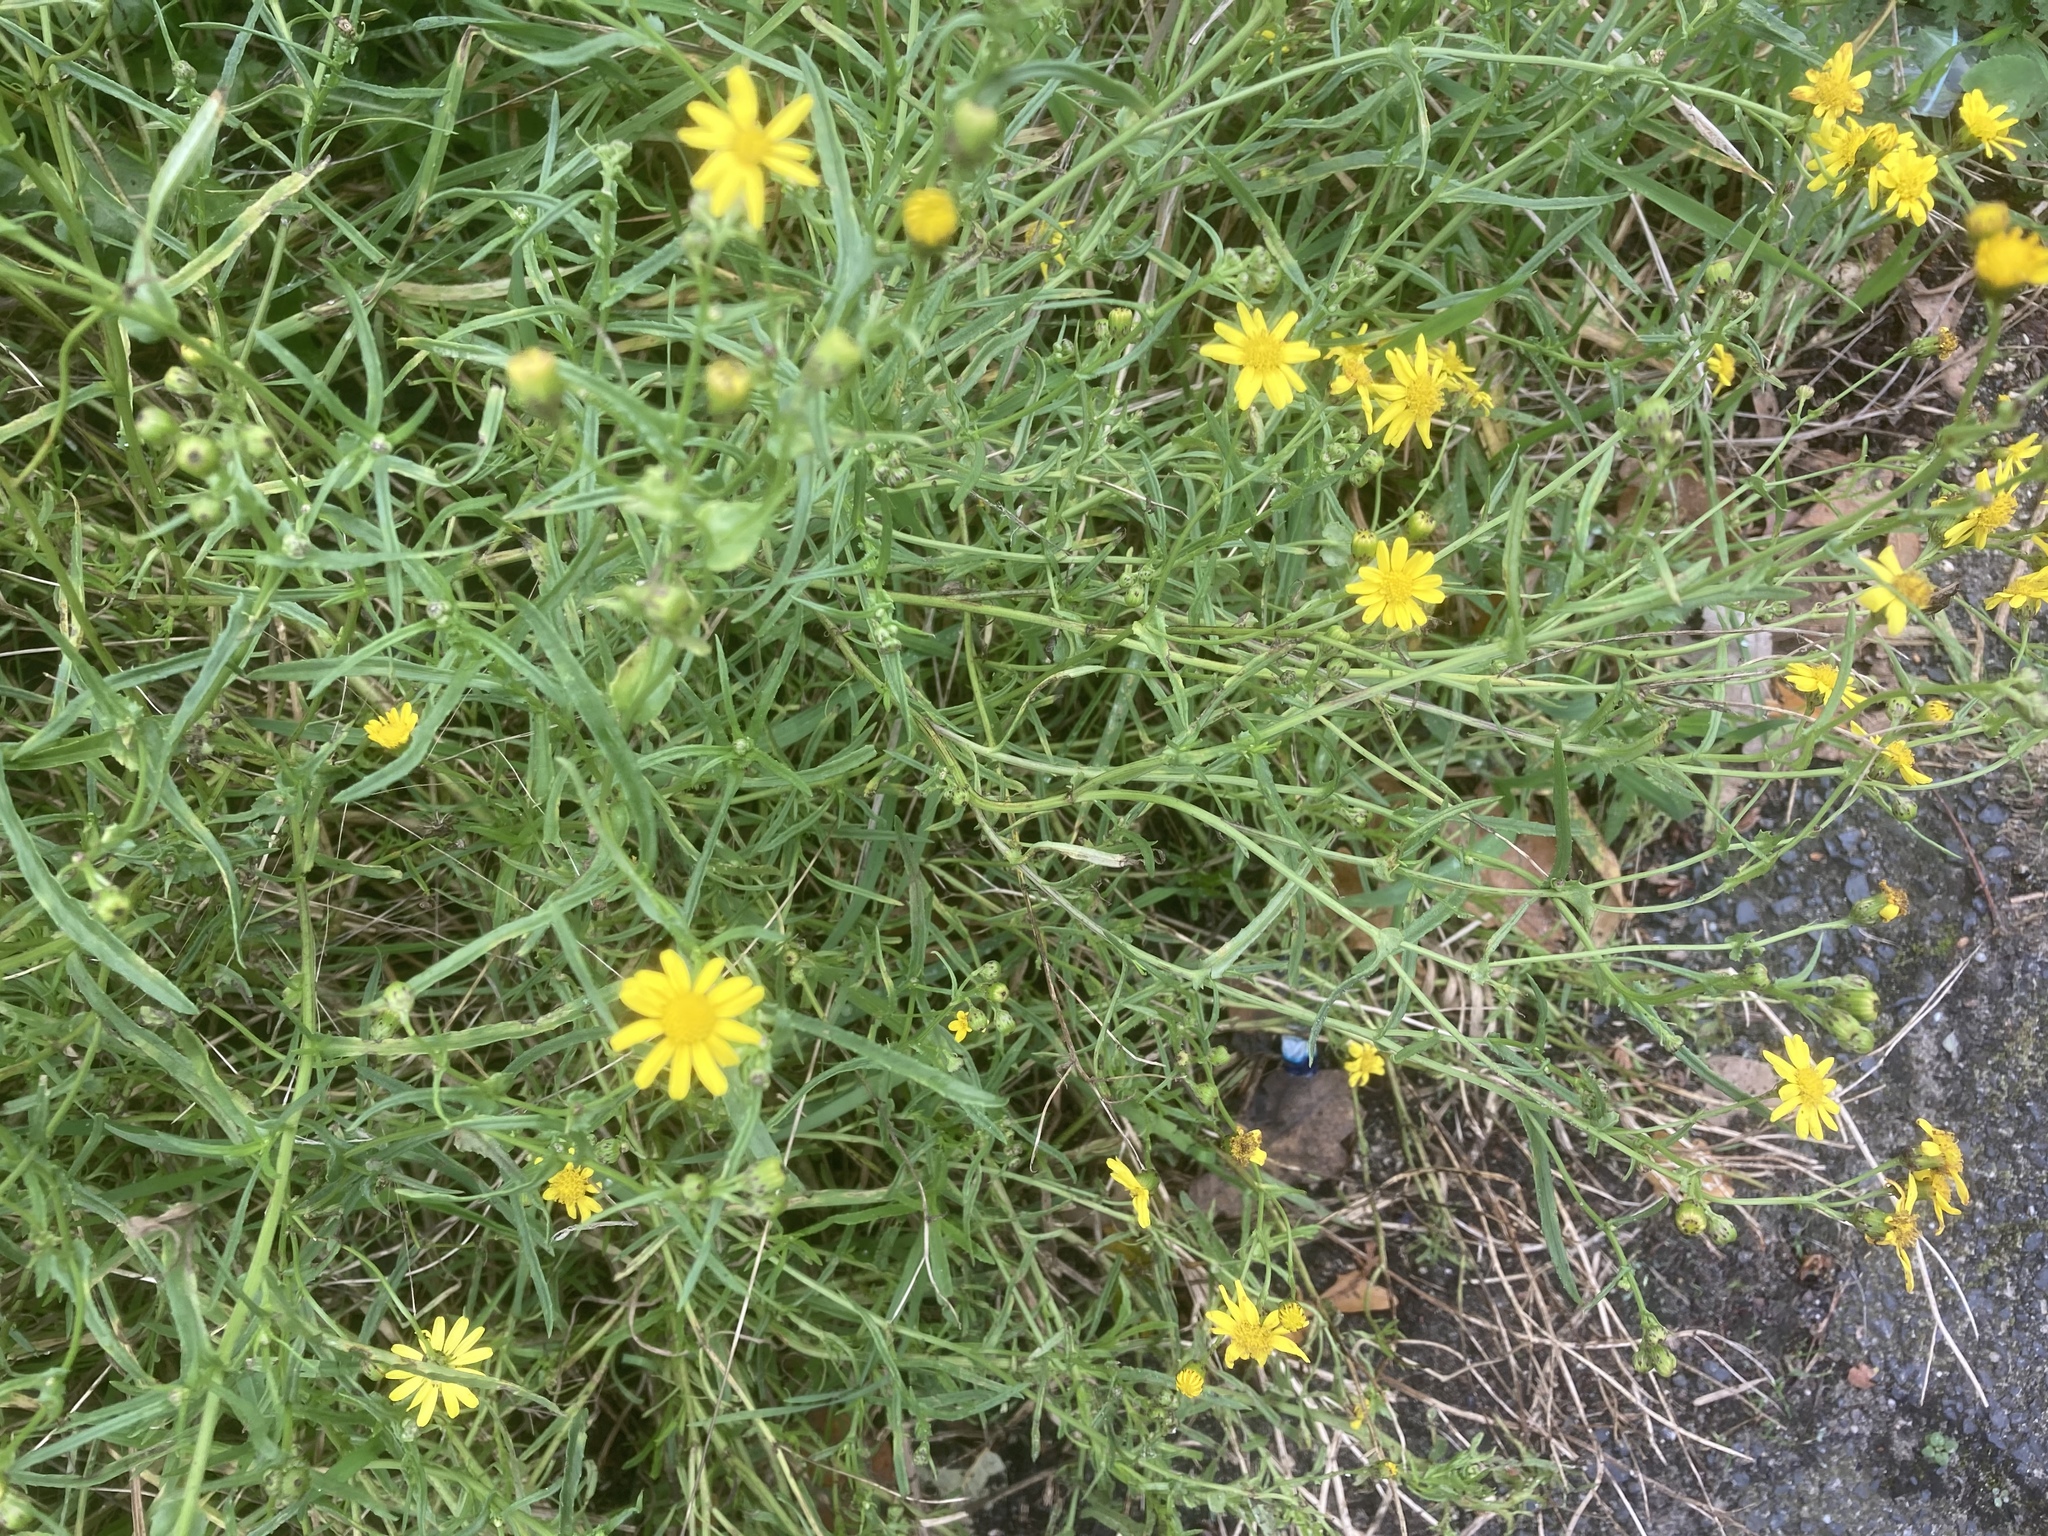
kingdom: Plantae
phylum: Tracheophyta
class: Magnoliopsida
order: Asterales
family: Asteraceae
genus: Senecio
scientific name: Senecio inaequidens
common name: Narrow-leaved ragwort
